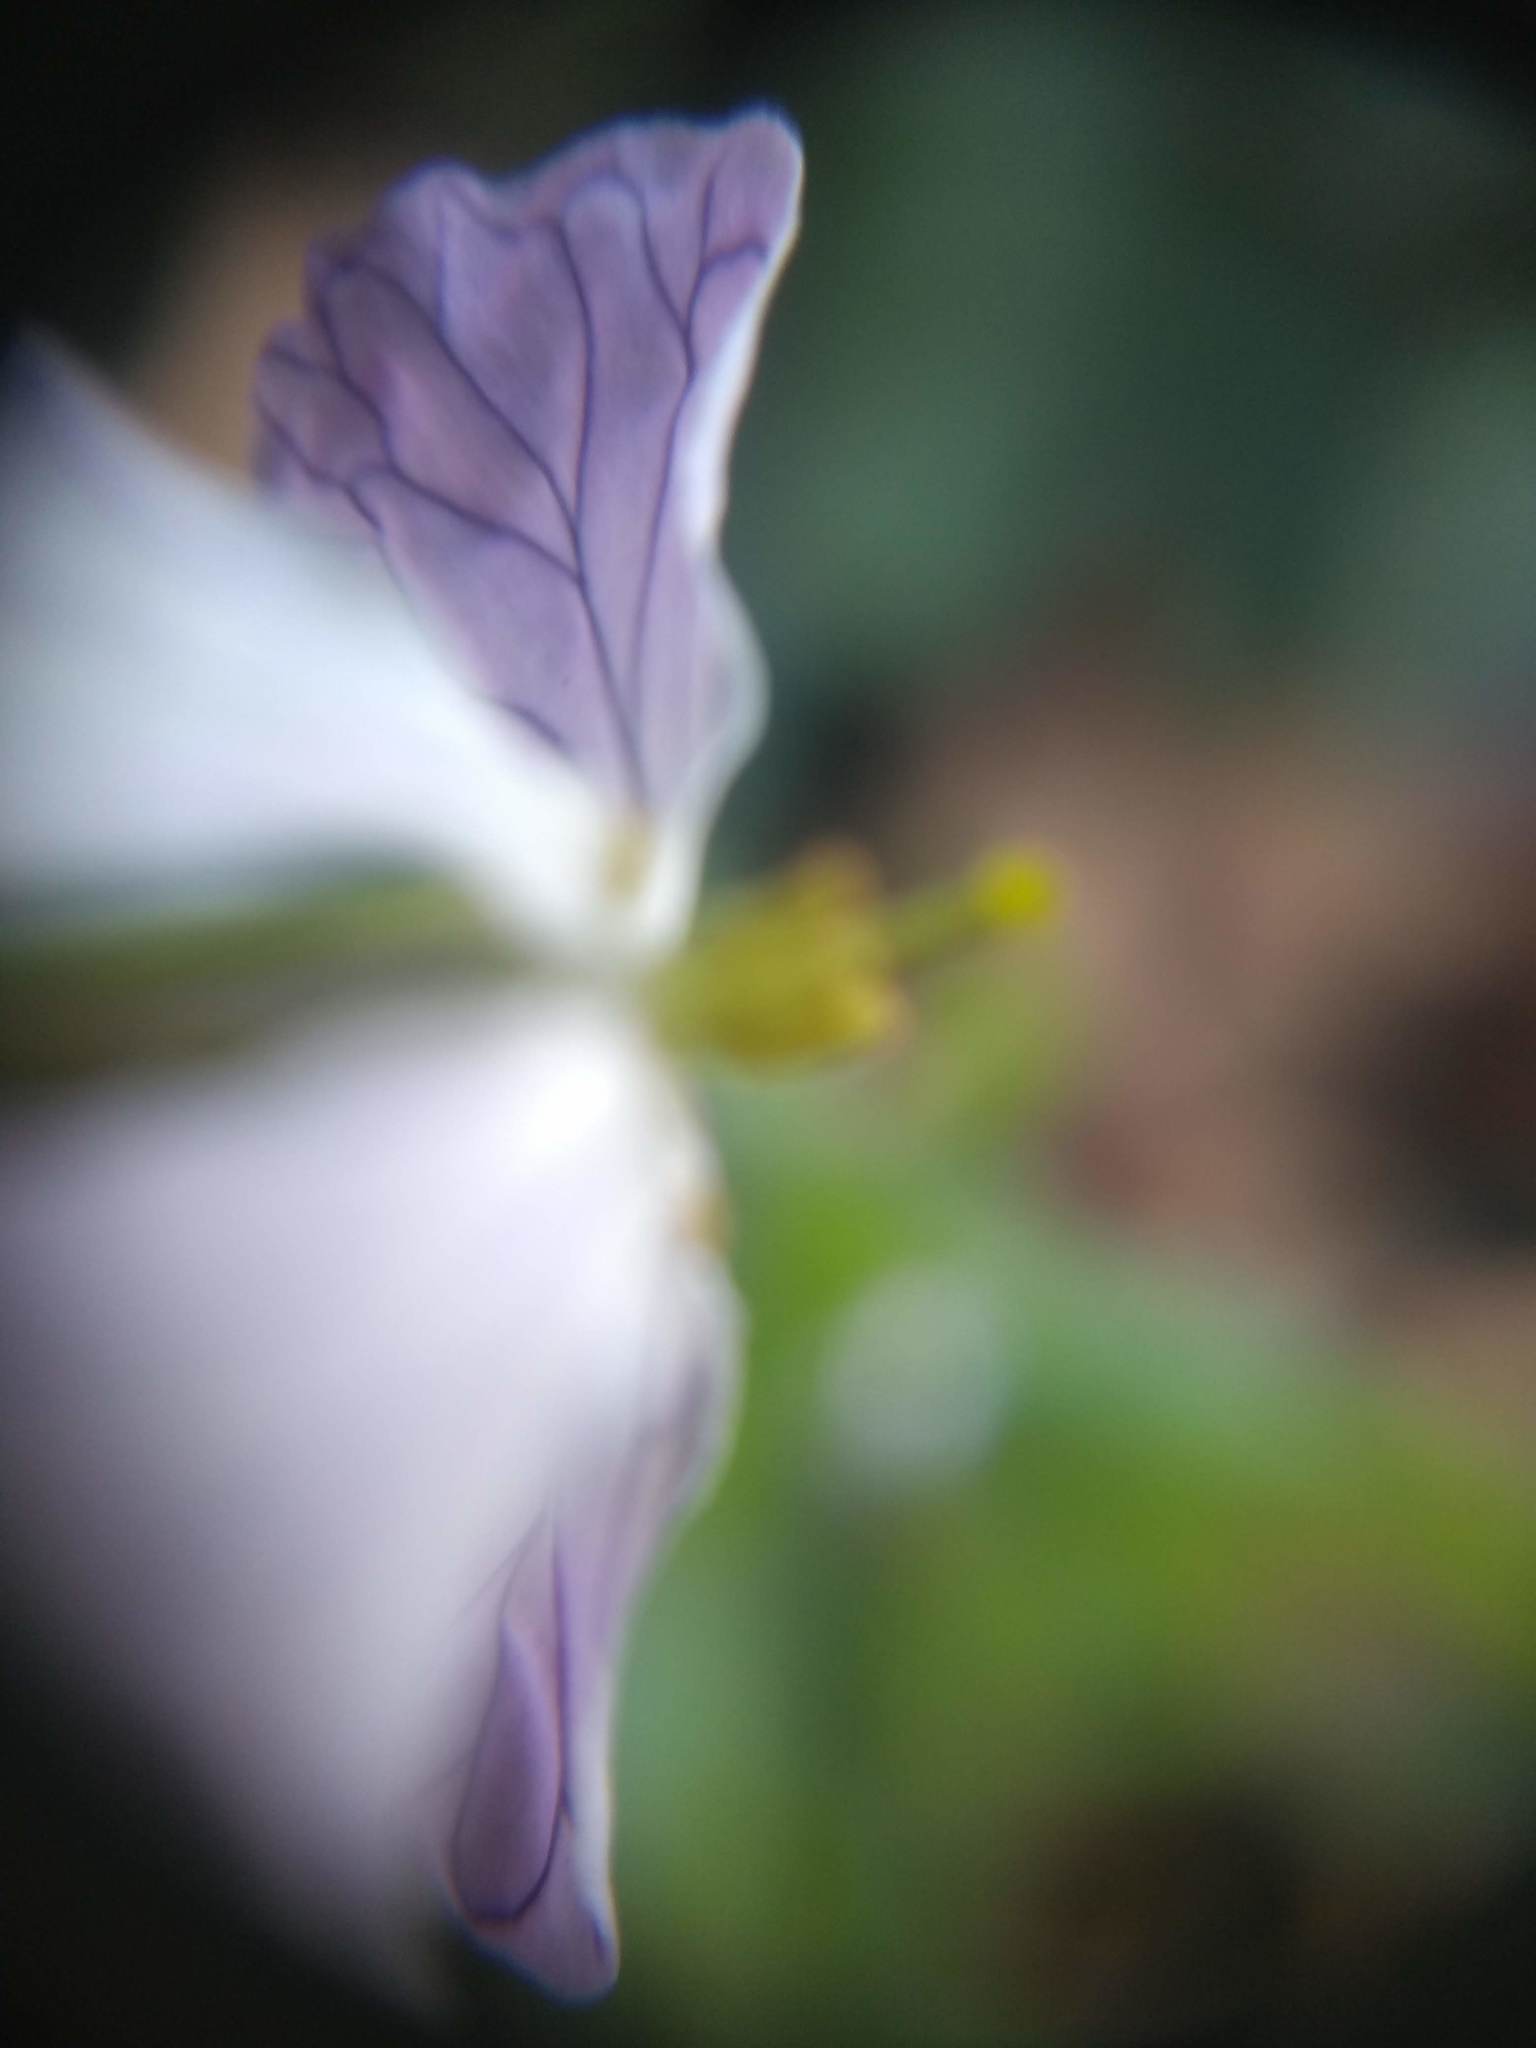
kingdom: Plantae
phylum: Tracheophyta
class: Magnoliopsida
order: Brassicales
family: Brassicaceae
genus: Raphanus
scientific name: Raphanus sativus
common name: Cultivated radish
